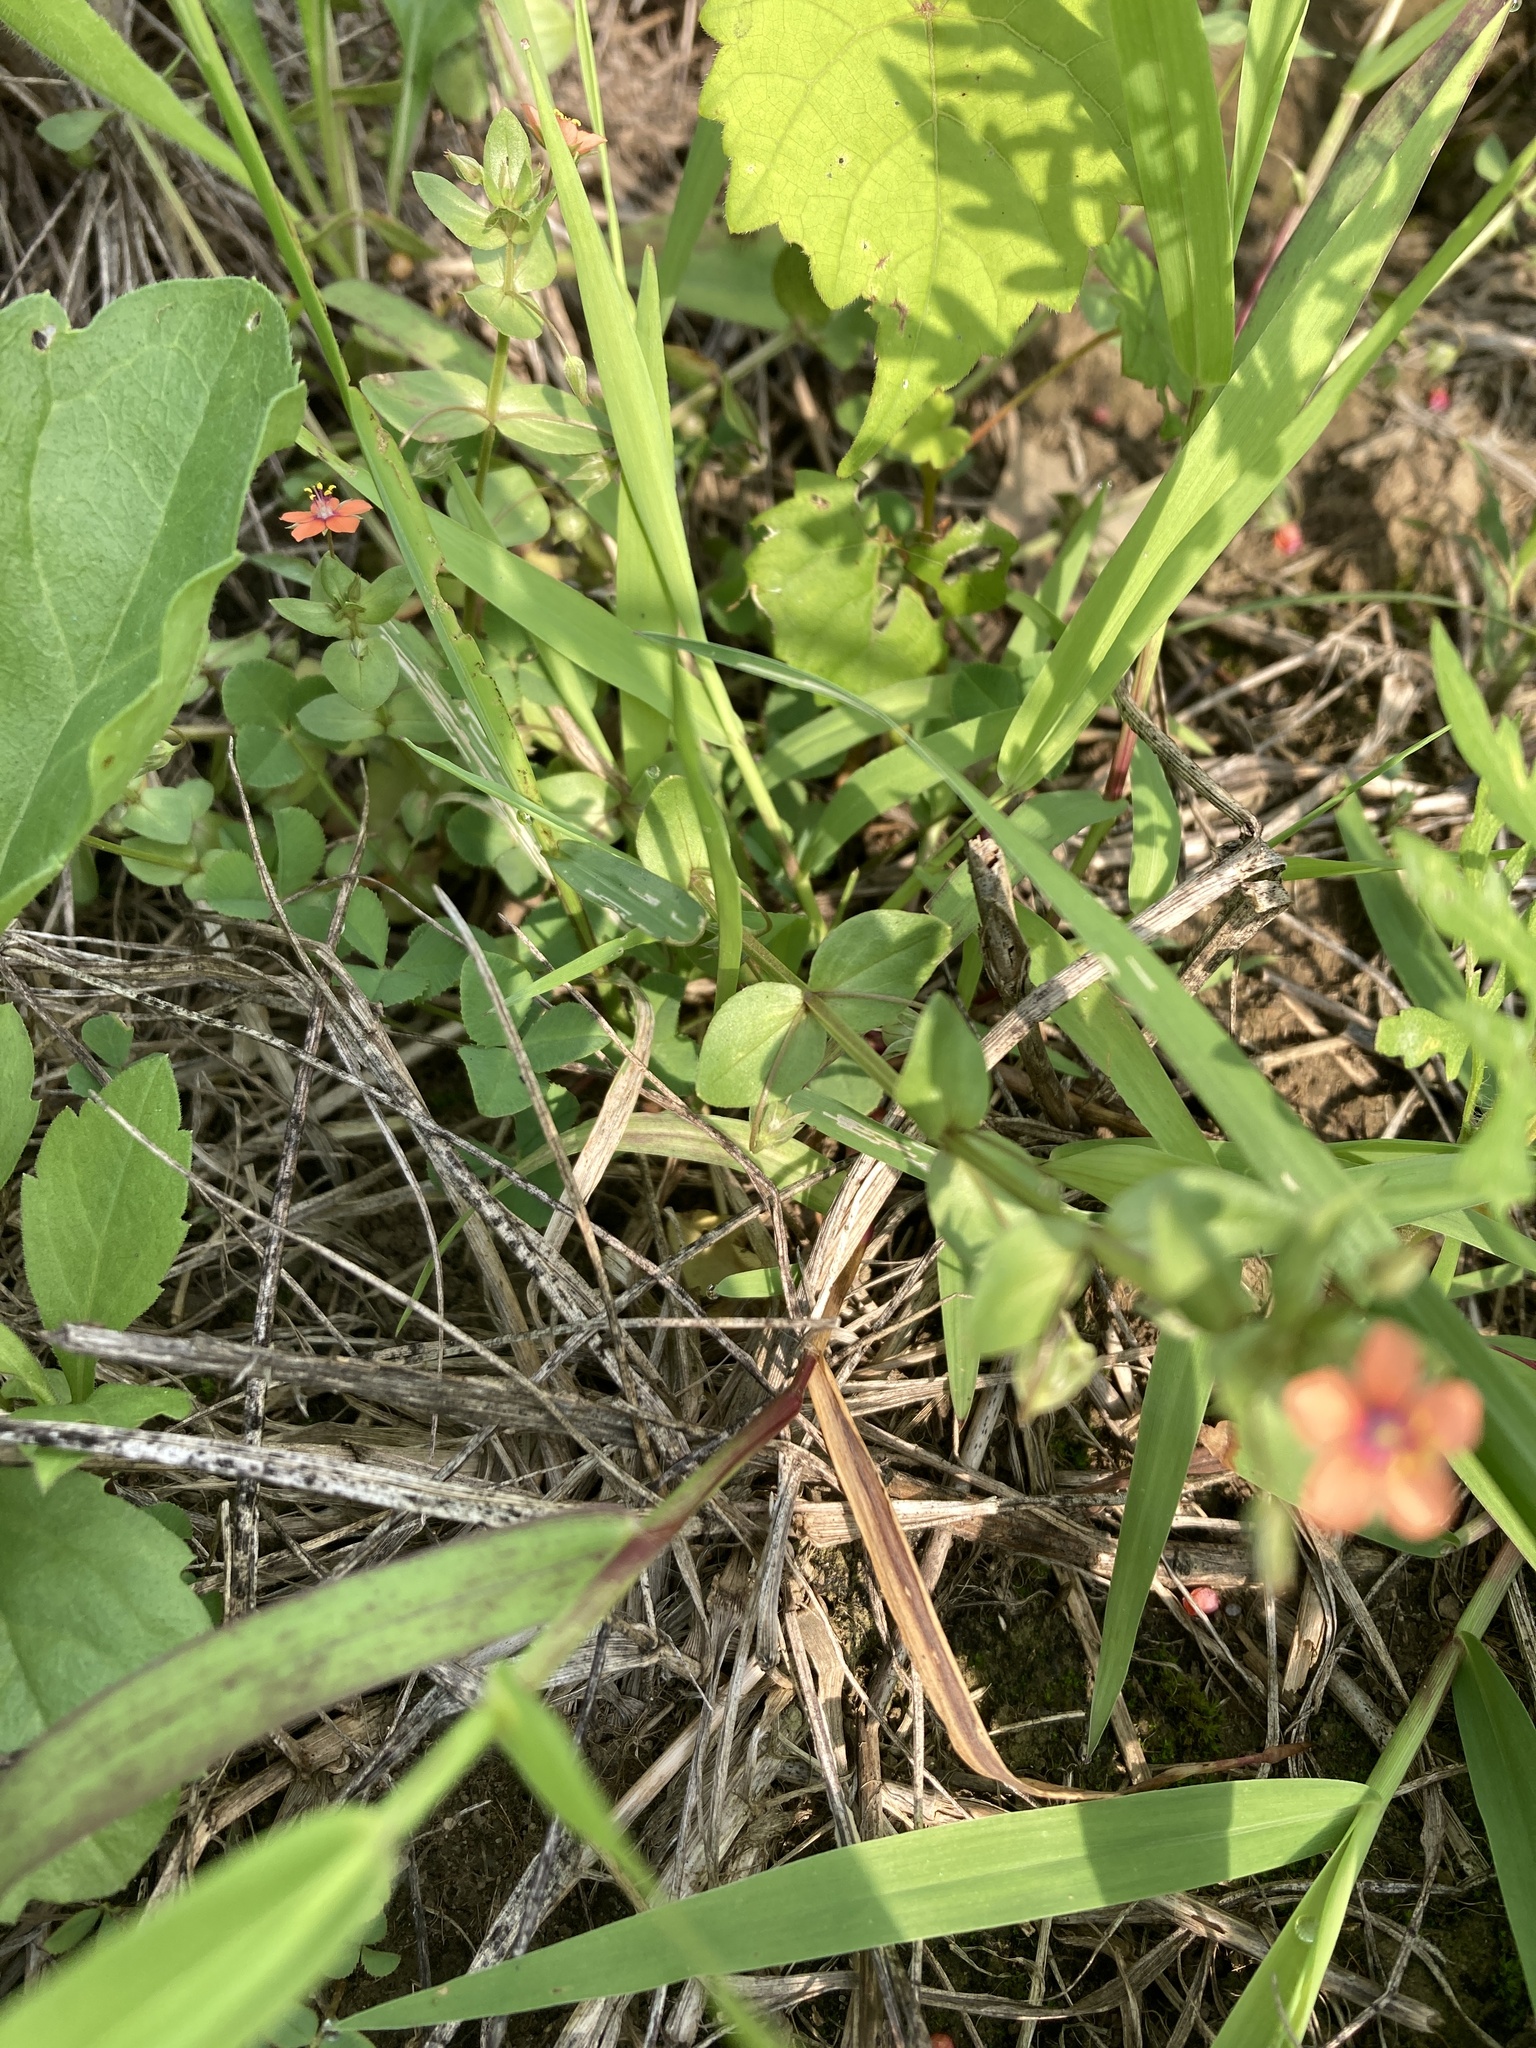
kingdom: Plantae
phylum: Tracheophyta
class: Magnoliopsida
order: Ericales
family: Primulaceae
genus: Lysimachia
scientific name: Lysimachia arvensis
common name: Scarlet pimpernel
